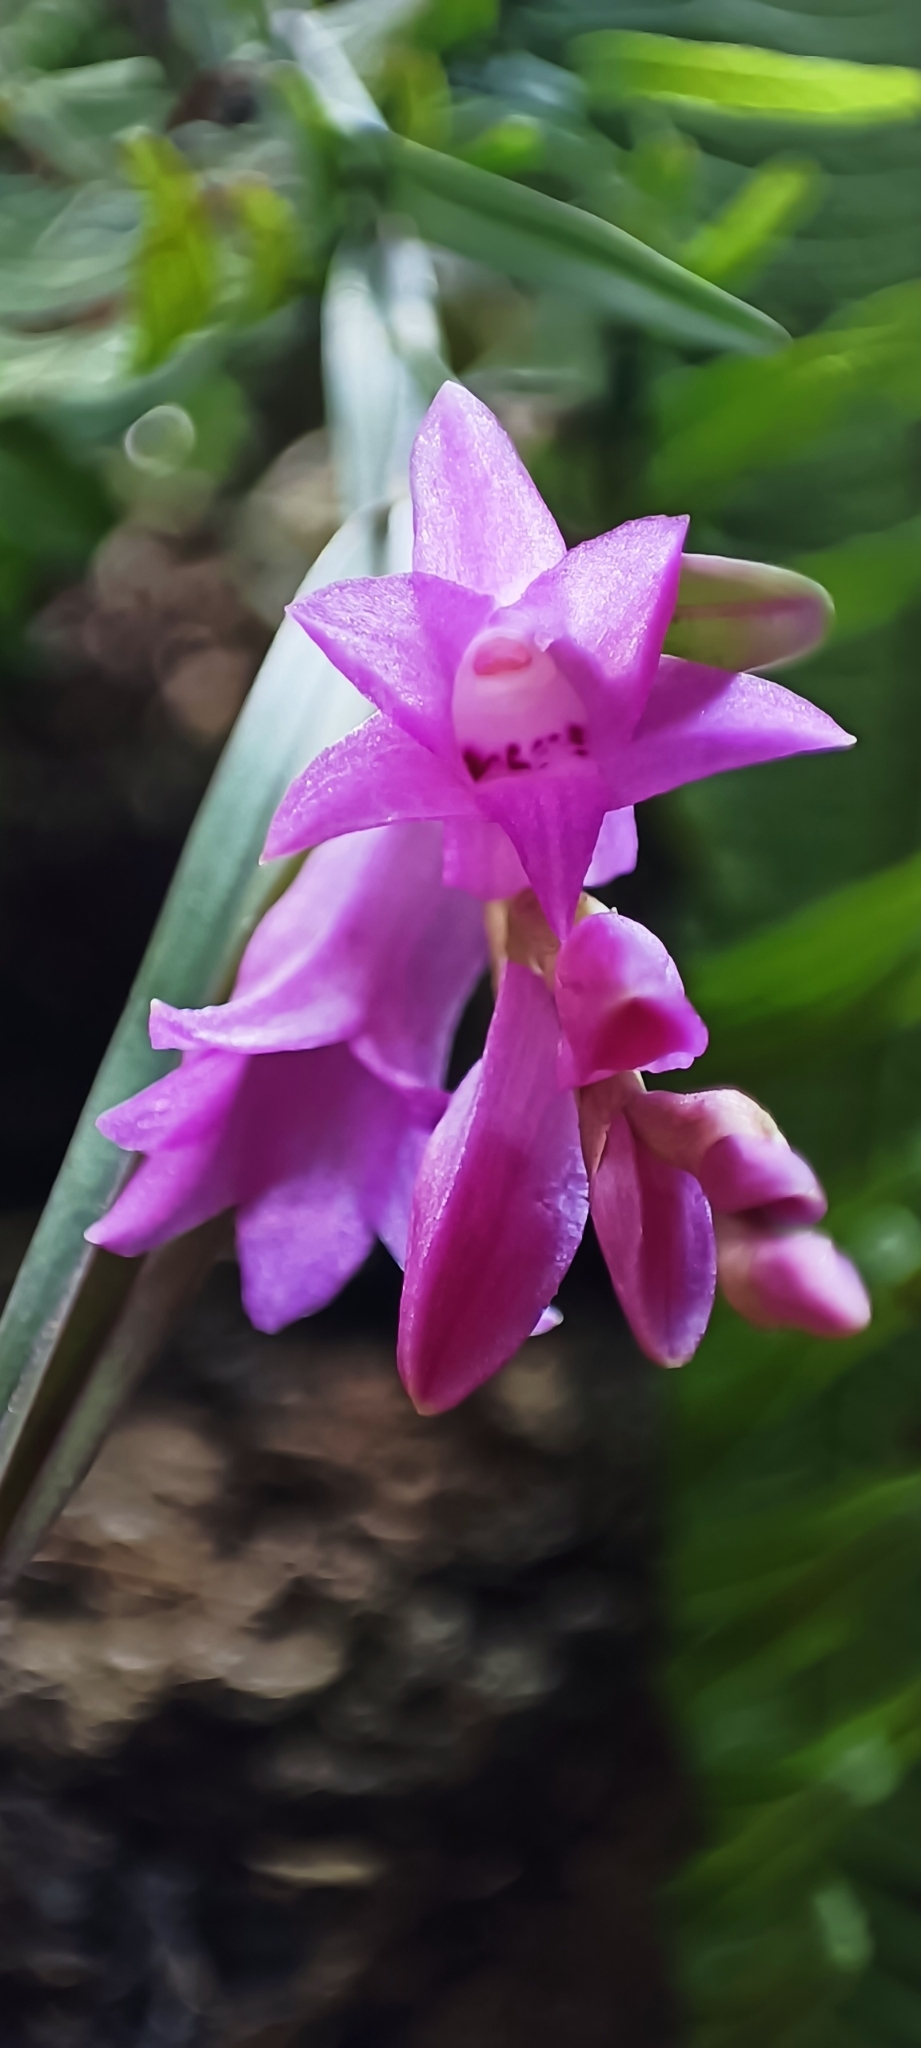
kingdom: Plantae
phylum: Tracheophyta
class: Liliopsida
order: Asparagales
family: Orchidaceae
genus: Isochilus
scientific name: Isochilus unilateralis
